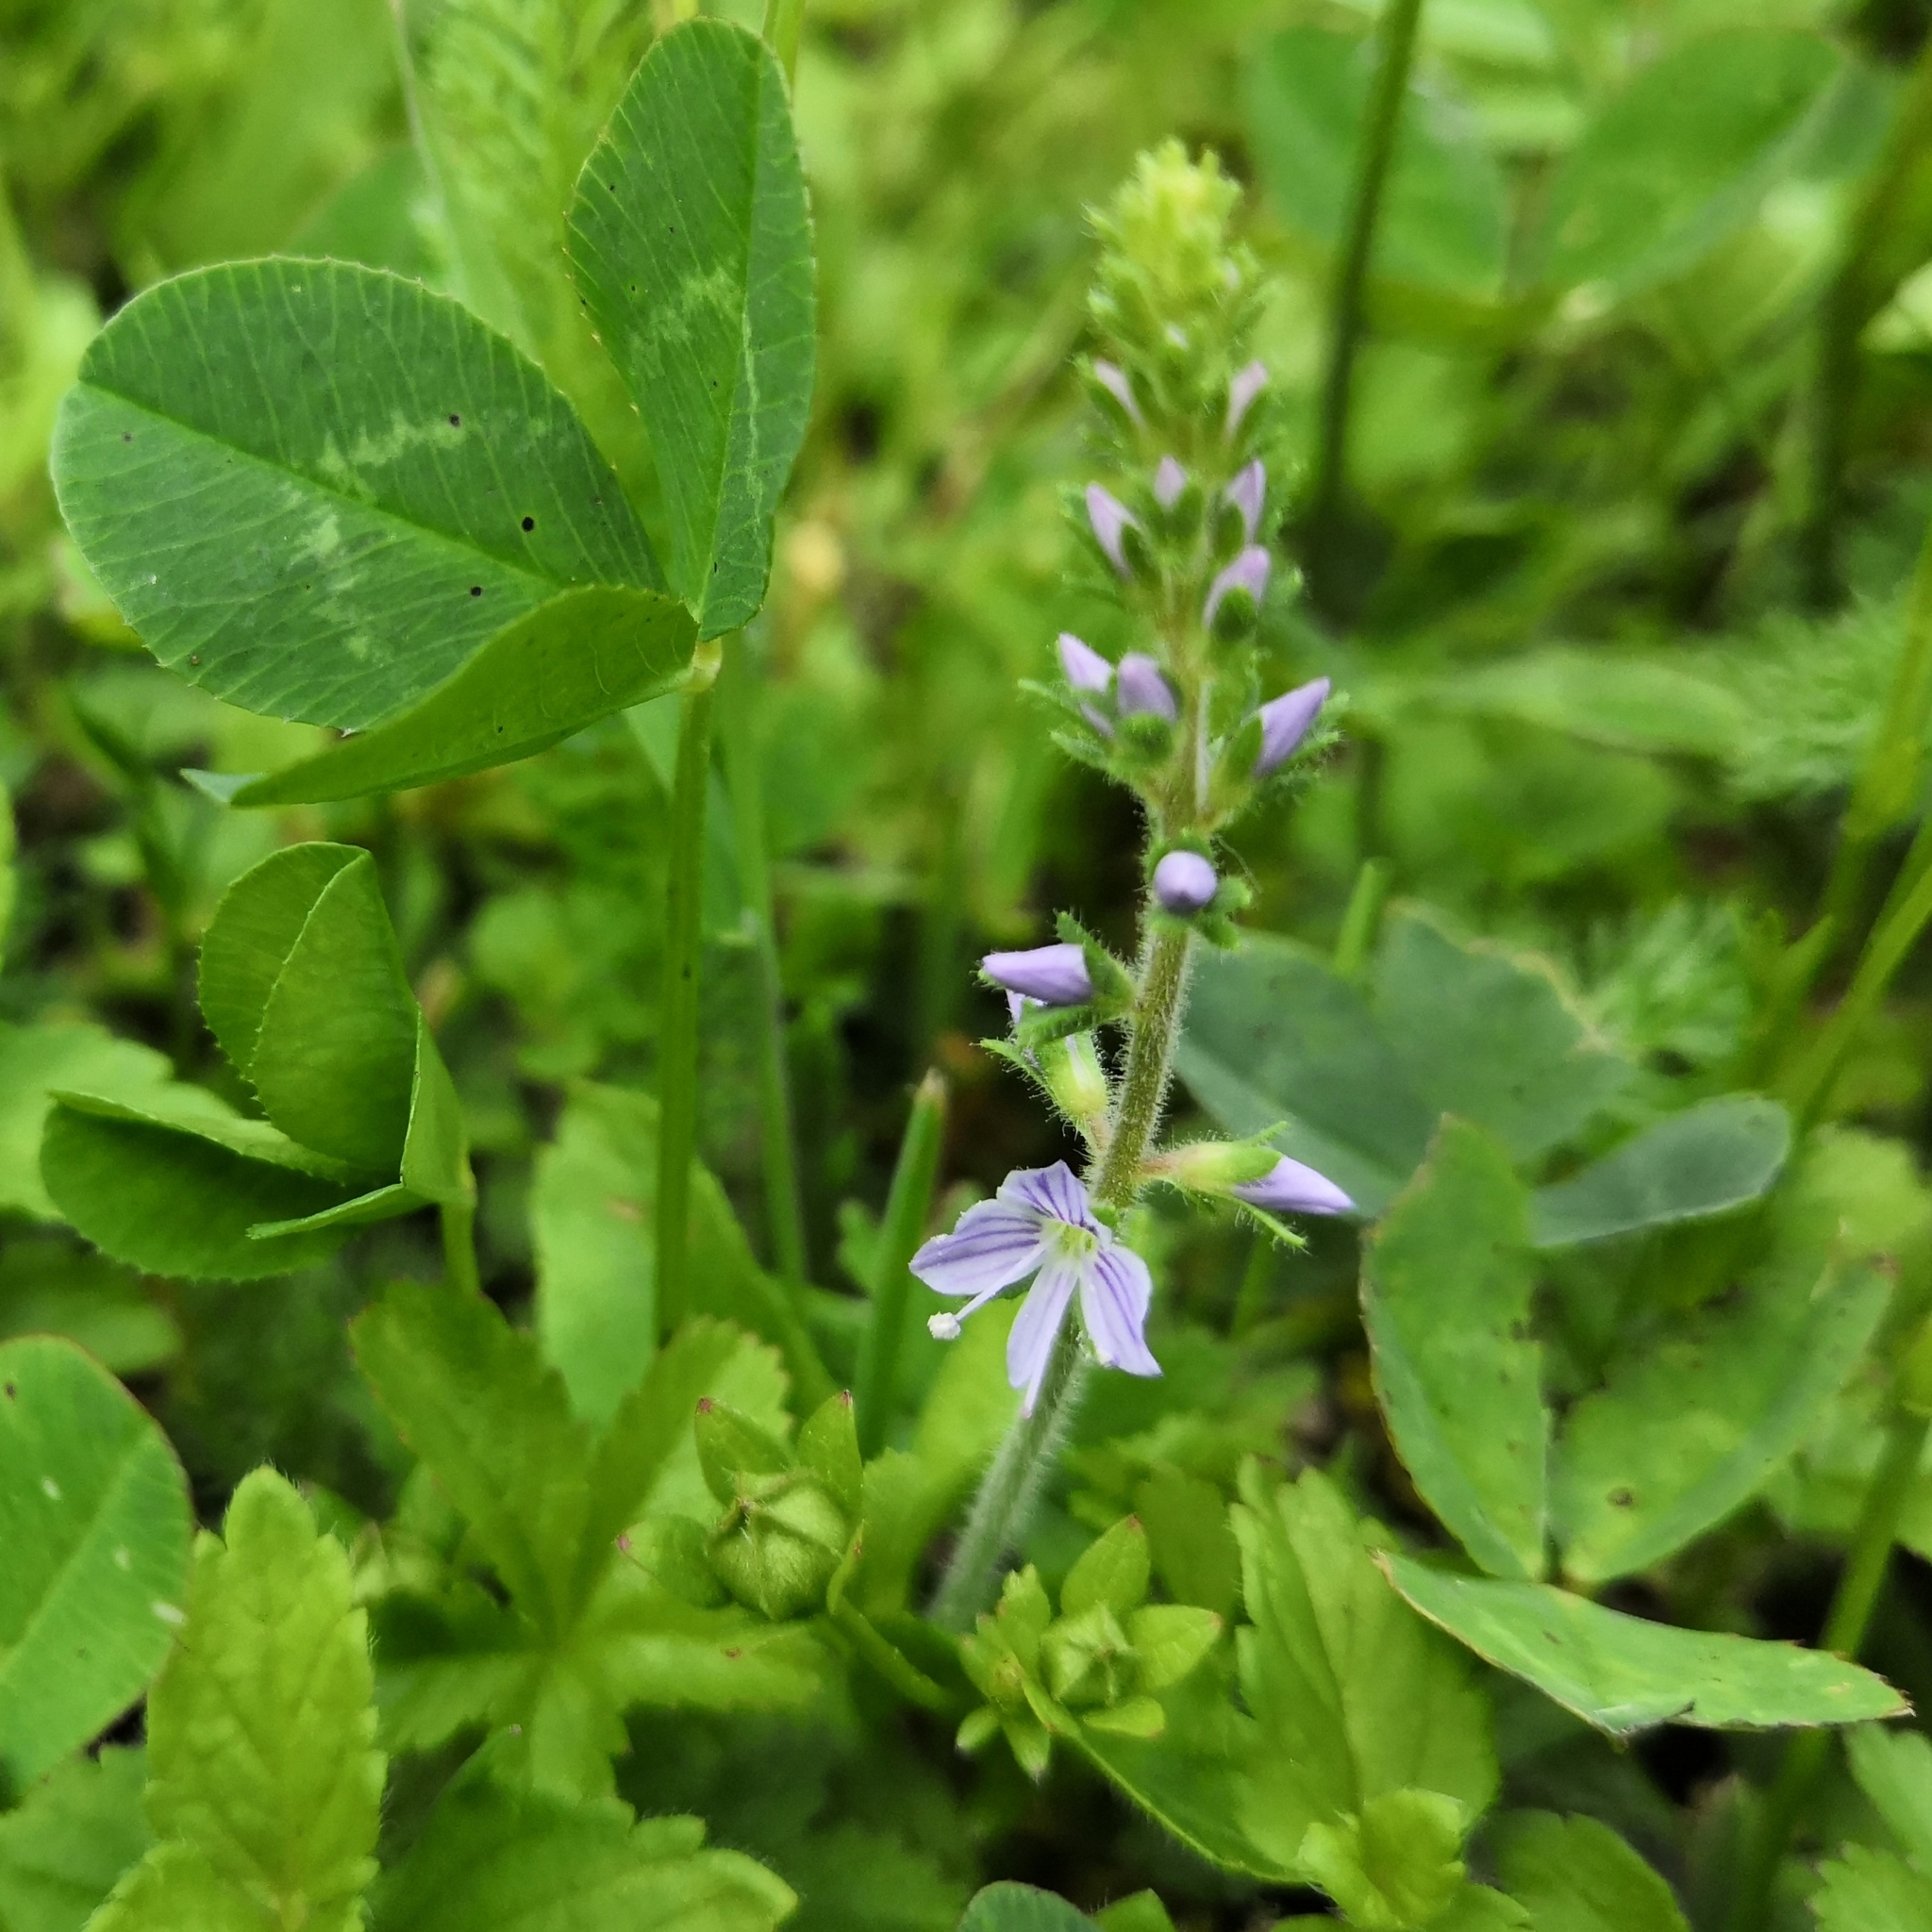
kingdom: Plantae
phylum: Tracheophyta
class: Magnoliopsida
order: Lamiales
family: Plantaginaceae
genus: Veronica
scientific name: Veronica officinalis
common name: Common speedwell
